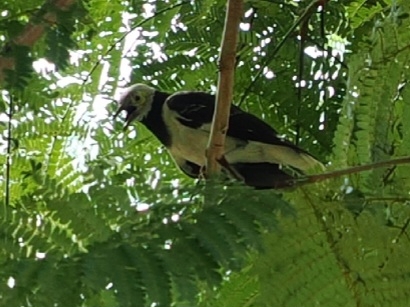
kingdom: Animalia
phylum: Chordata
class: Aves
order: Passeriformes
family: Sturnidae
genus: Gracupica
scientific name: Gracupica nigricollis
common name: Black-collared starling
